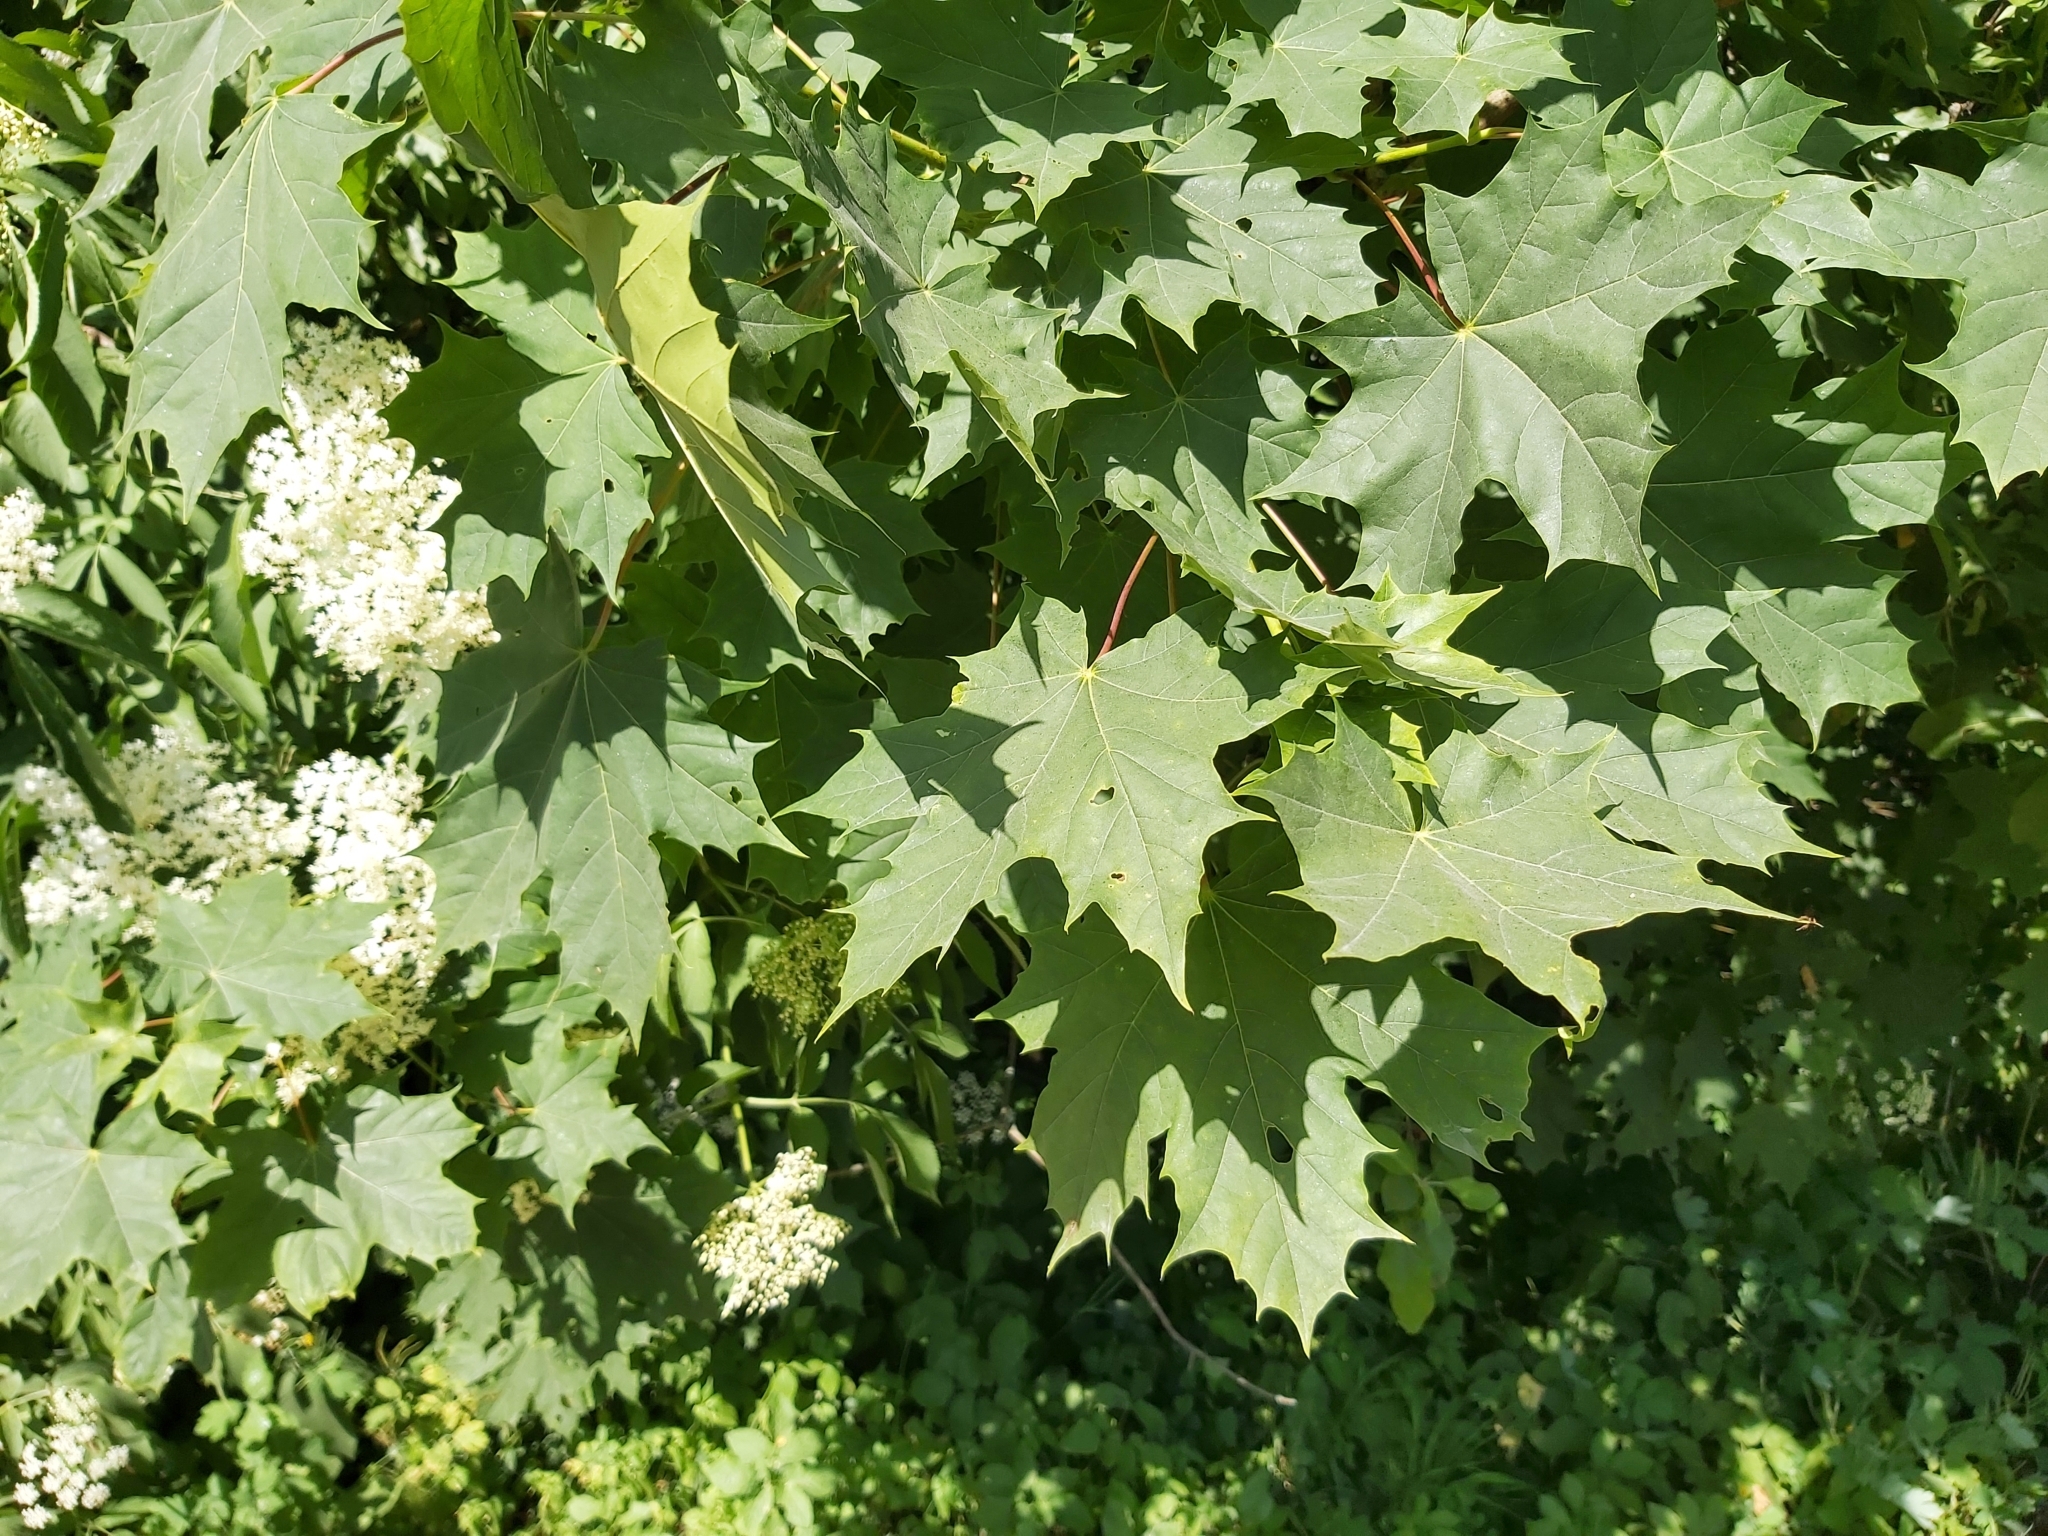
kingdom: Plantae
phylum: Tracheophyta
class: Magnoliopsida
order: Sapindales
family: Sapindaceae
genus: Acer
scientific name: Acer platanoides
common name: Norway maple
